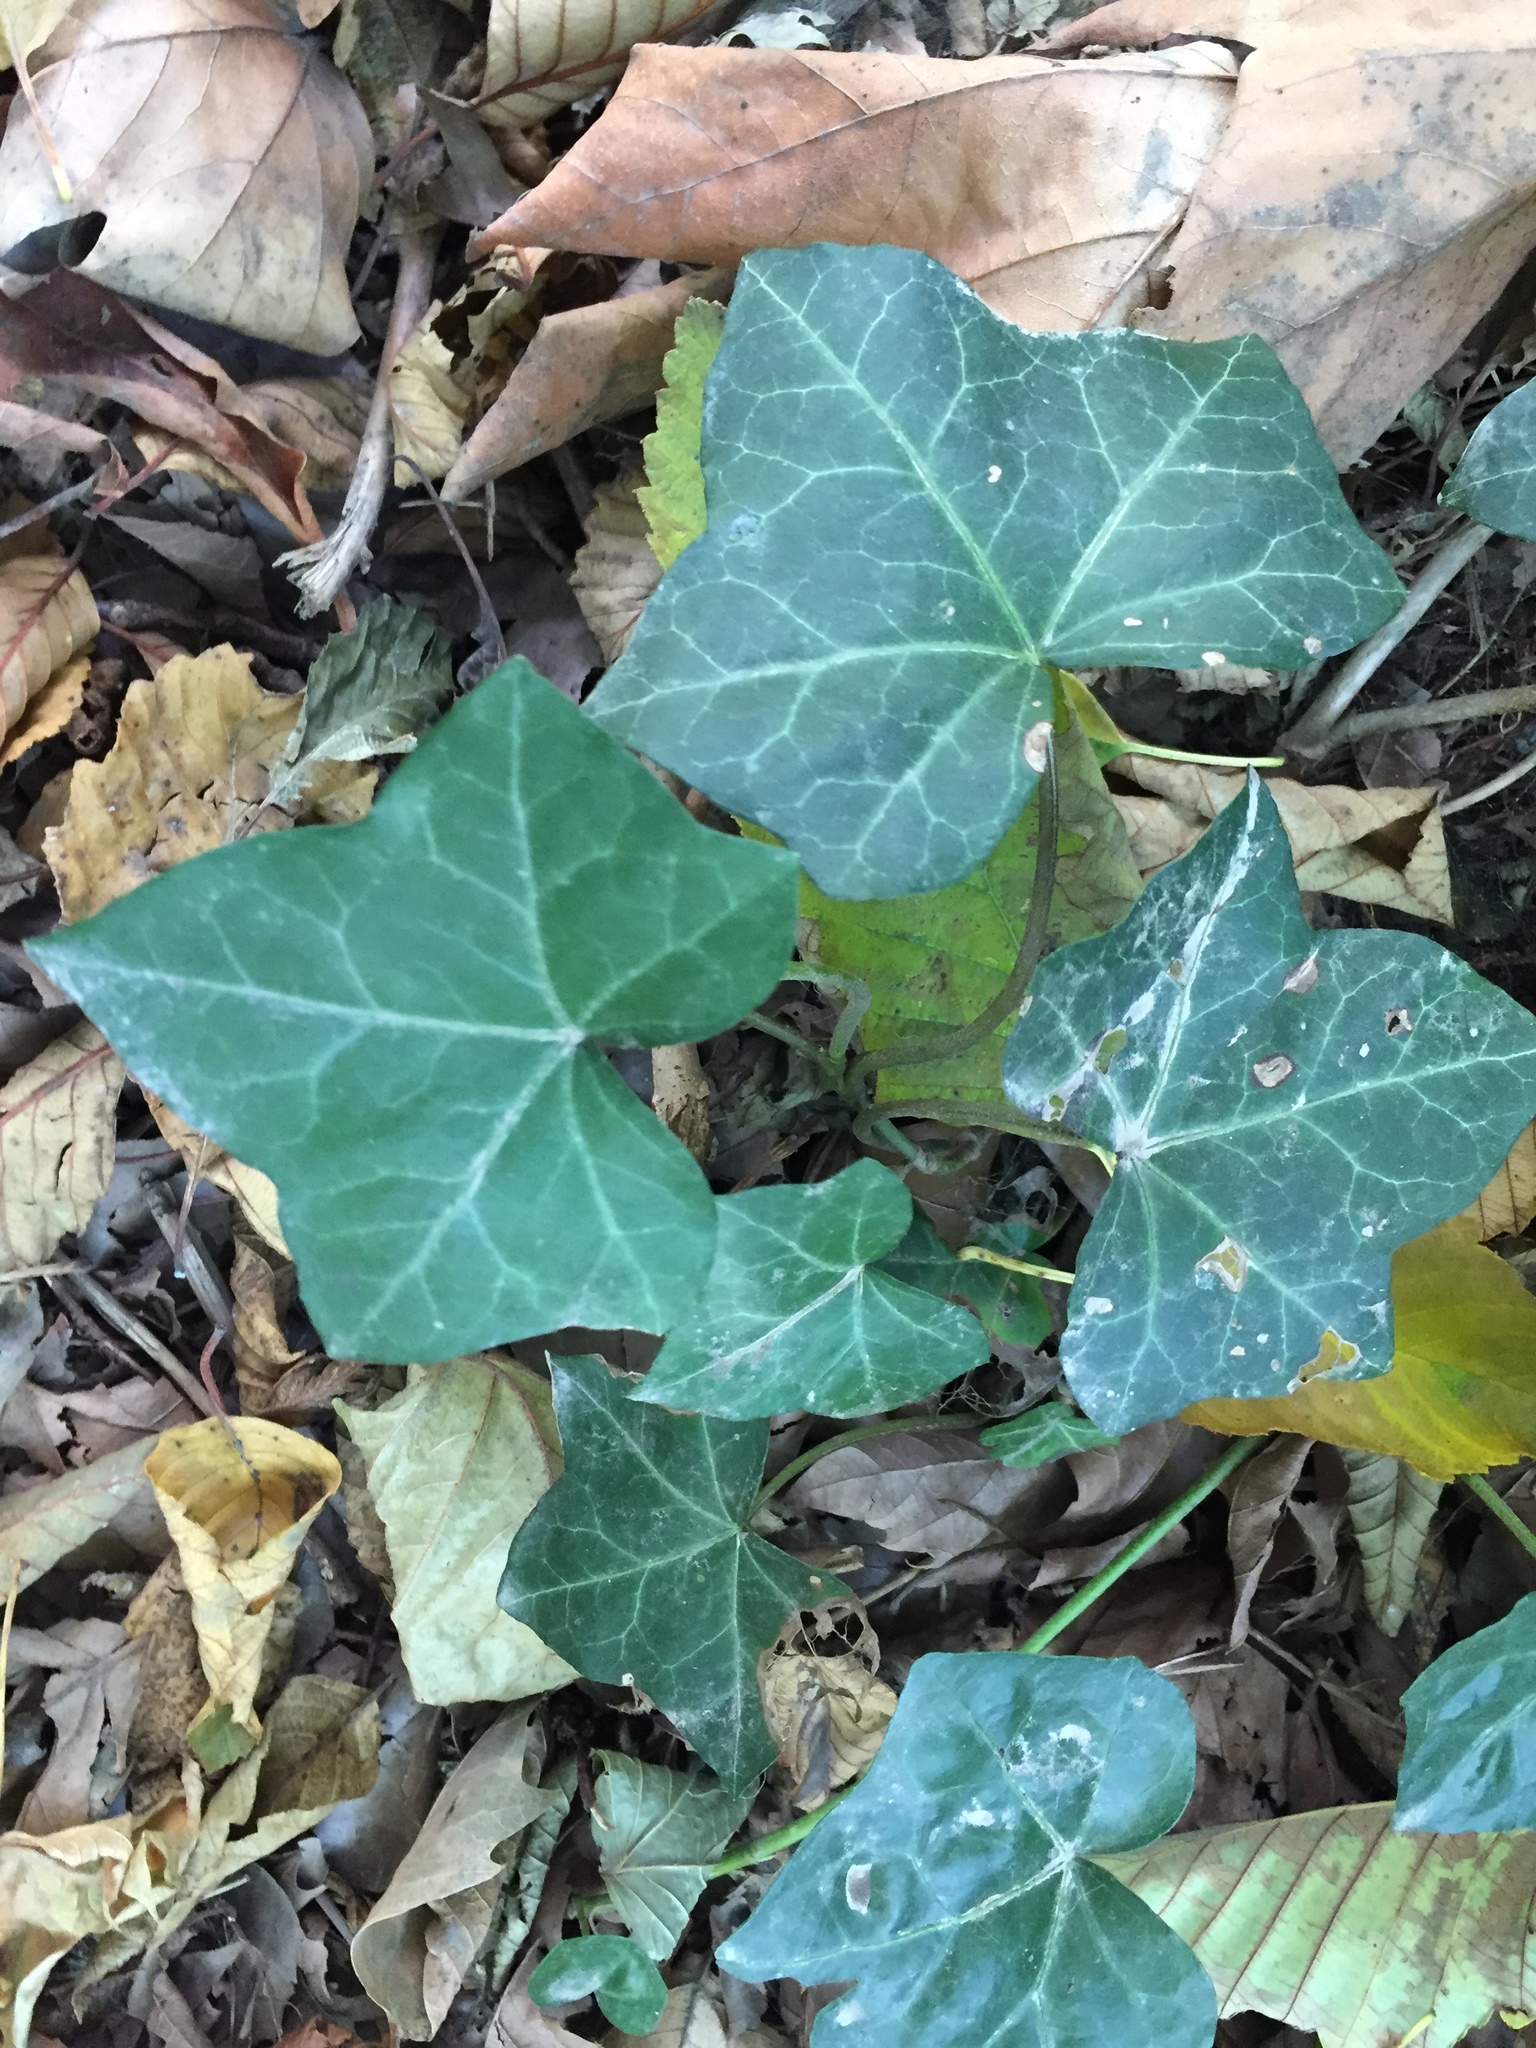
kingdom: Plantae
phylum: Tracheophyta
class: Magnoliopsida
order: Apiales
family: Araliaceae
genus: Hedera
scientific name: Hedera helix
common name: Ivy
